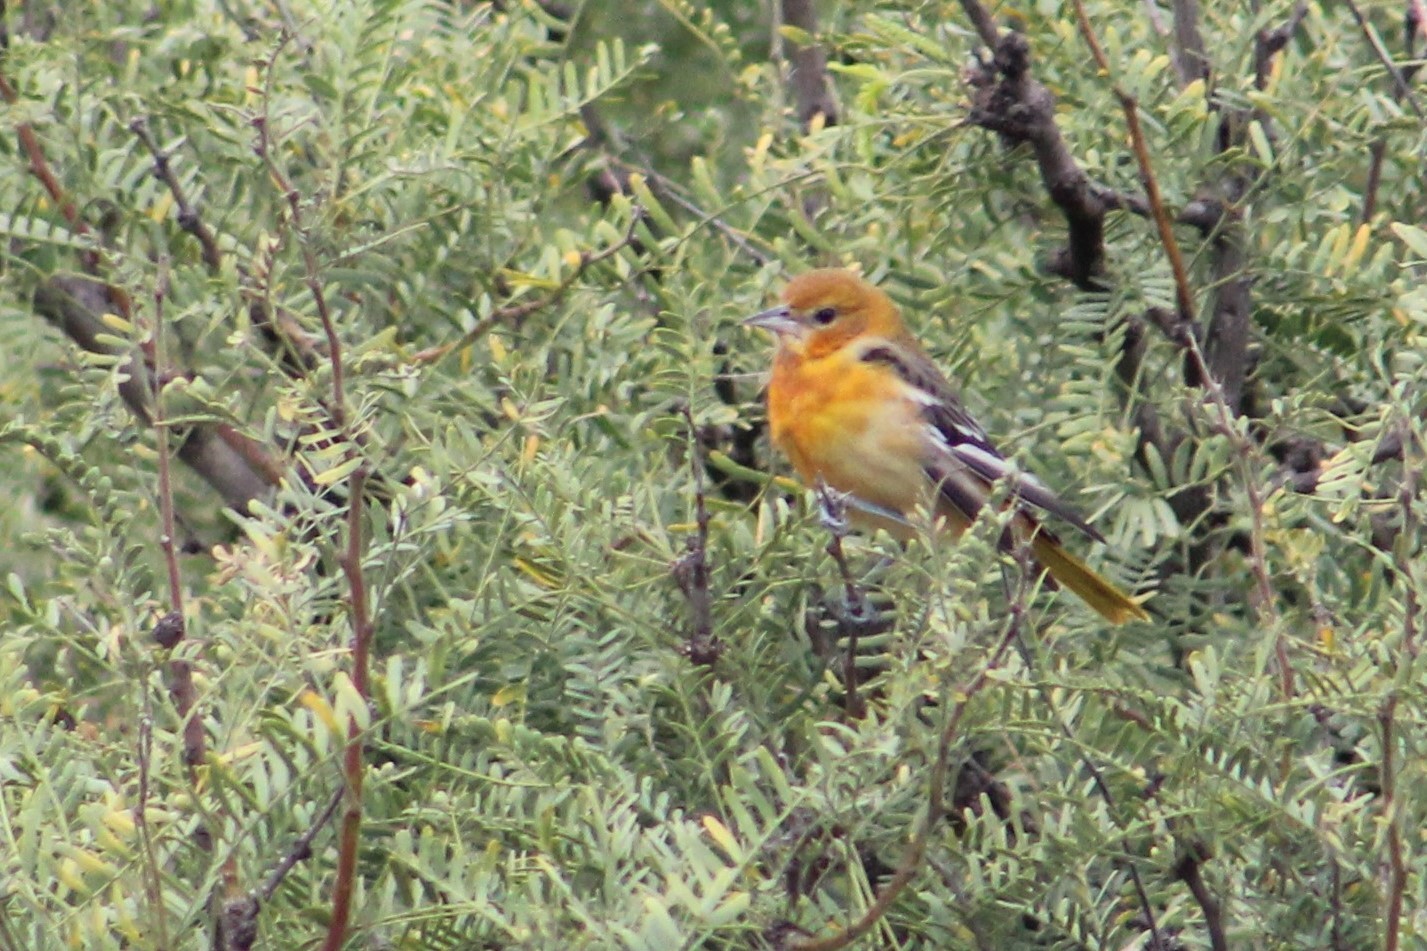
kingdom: Animalia
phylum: Chordata
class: Aves
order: Passeriformes
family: Icteridae
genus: Icterus
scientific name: Icterus galbula
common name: Baltimore oriole
